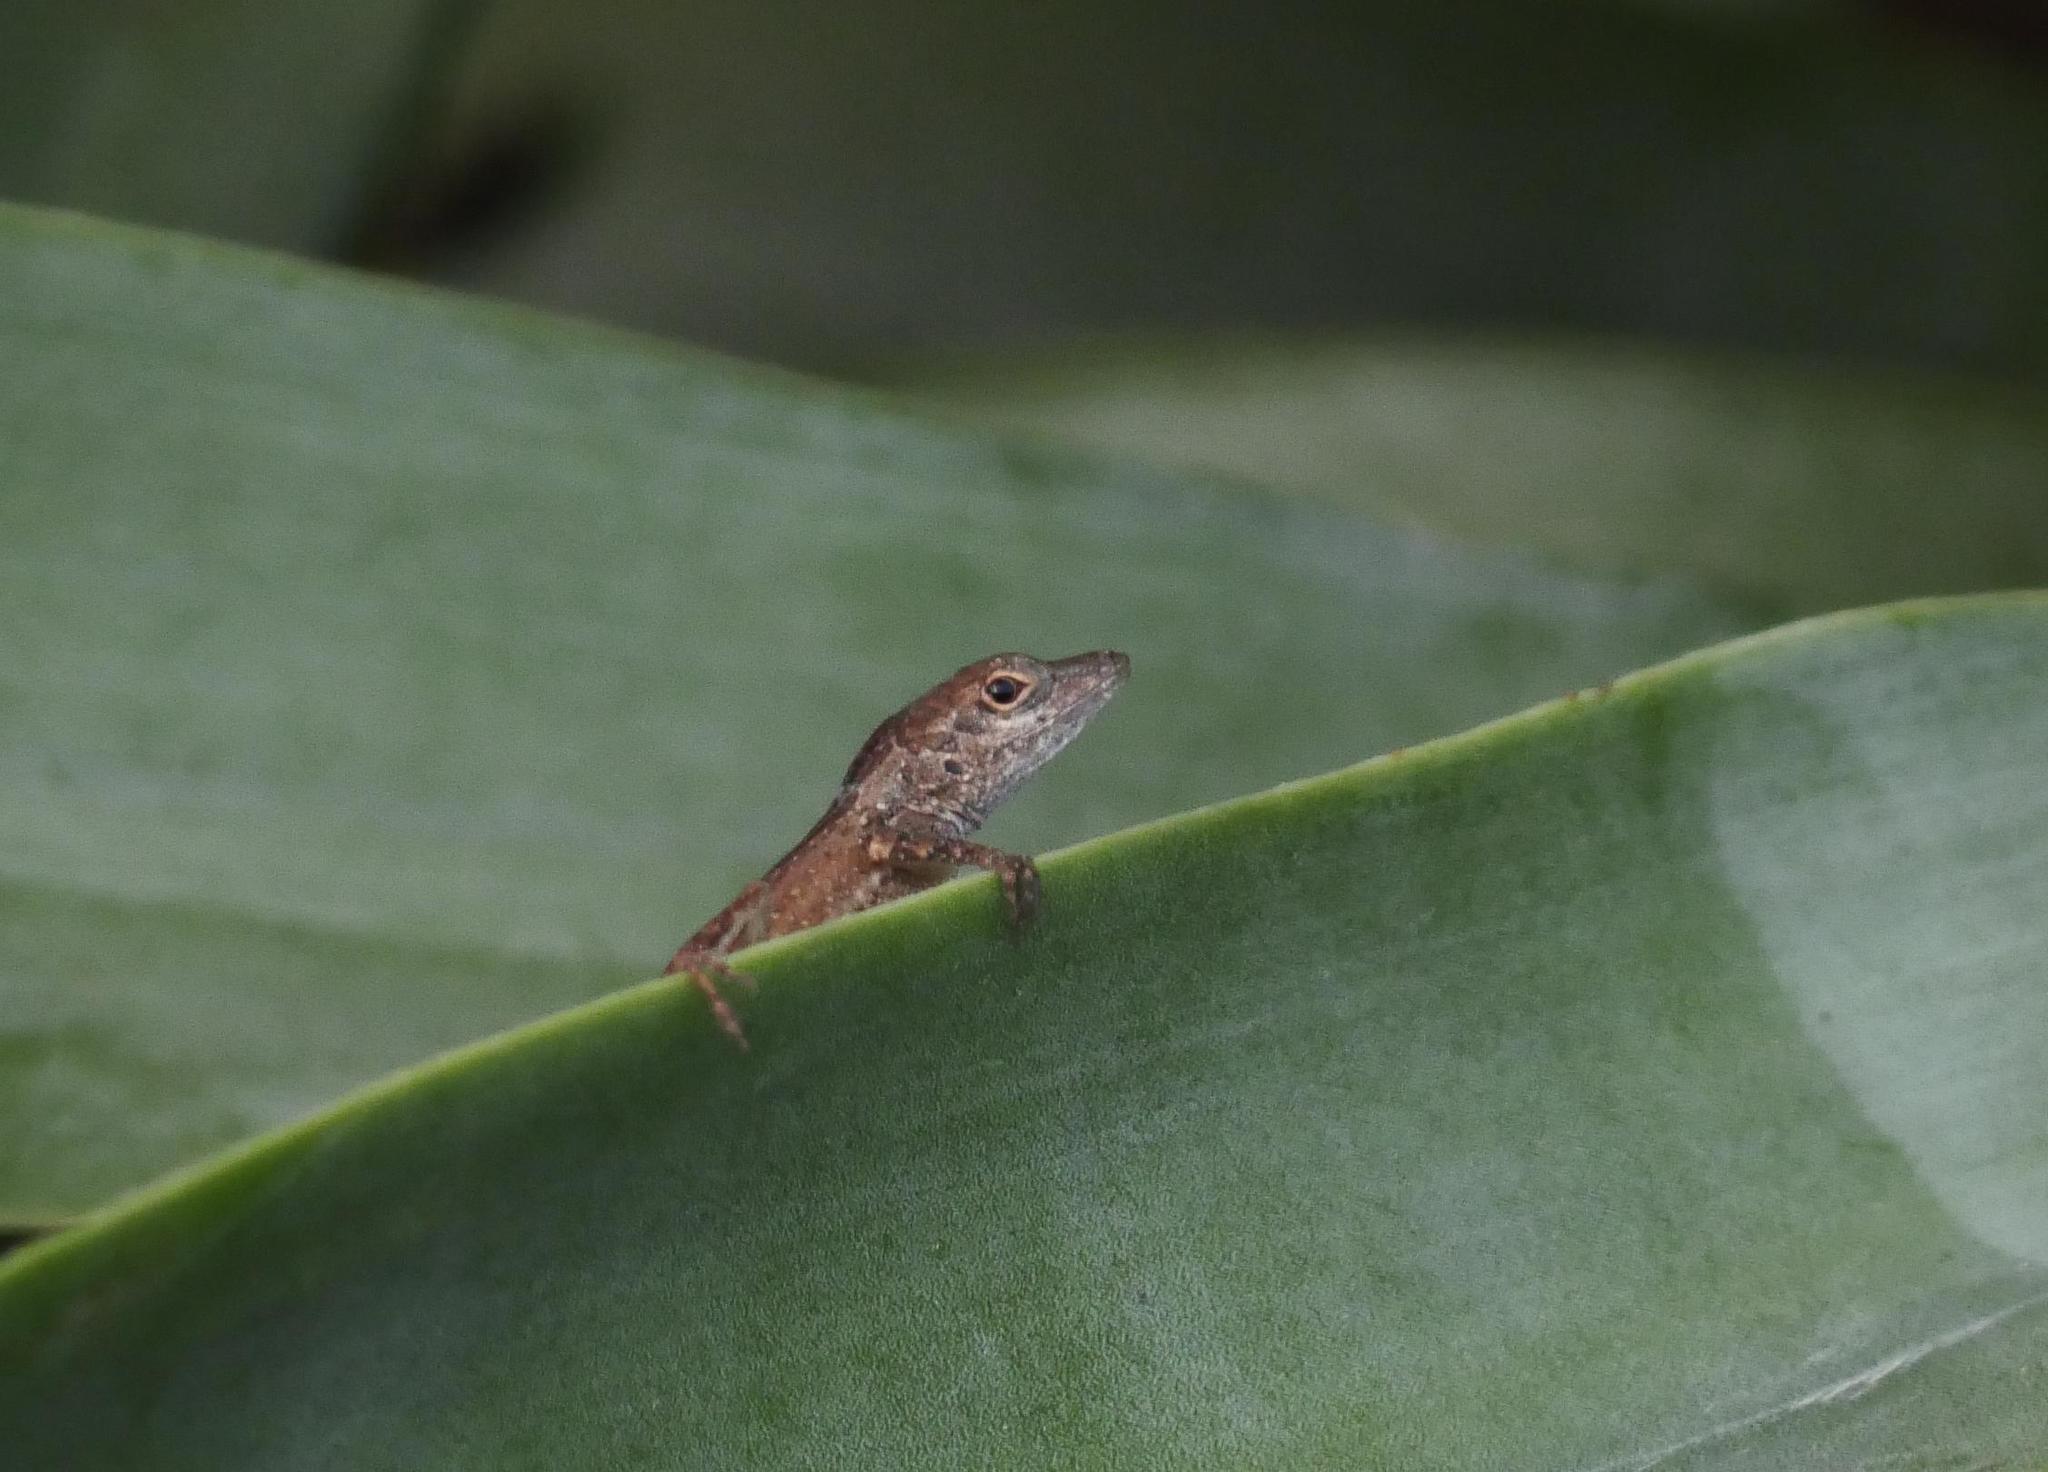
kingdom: Animalia
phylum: Chordata
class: Squamata
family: Dactyloidae
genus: Anolis
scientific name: Anolis scriptus
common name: Silver key anole
